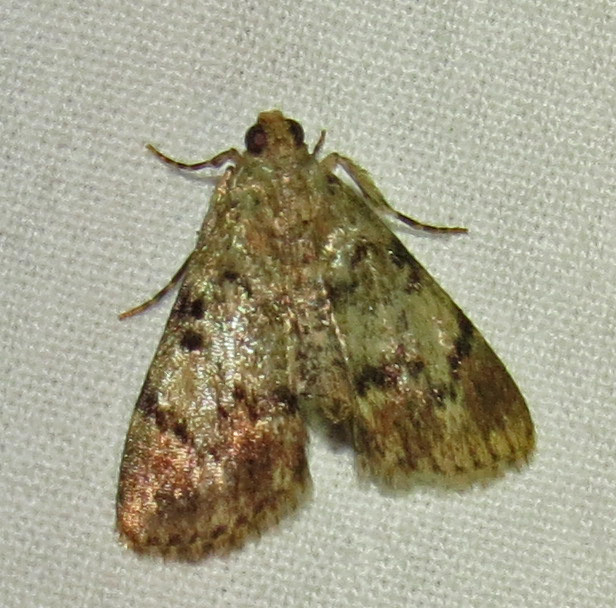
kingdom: Animalia
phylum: Arthropoda
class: Insecta
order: Lepidoptera
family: Pyralidae
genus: Epipaschia
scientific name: Epipaschia superatalis
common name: Dimorphic macalla moth
